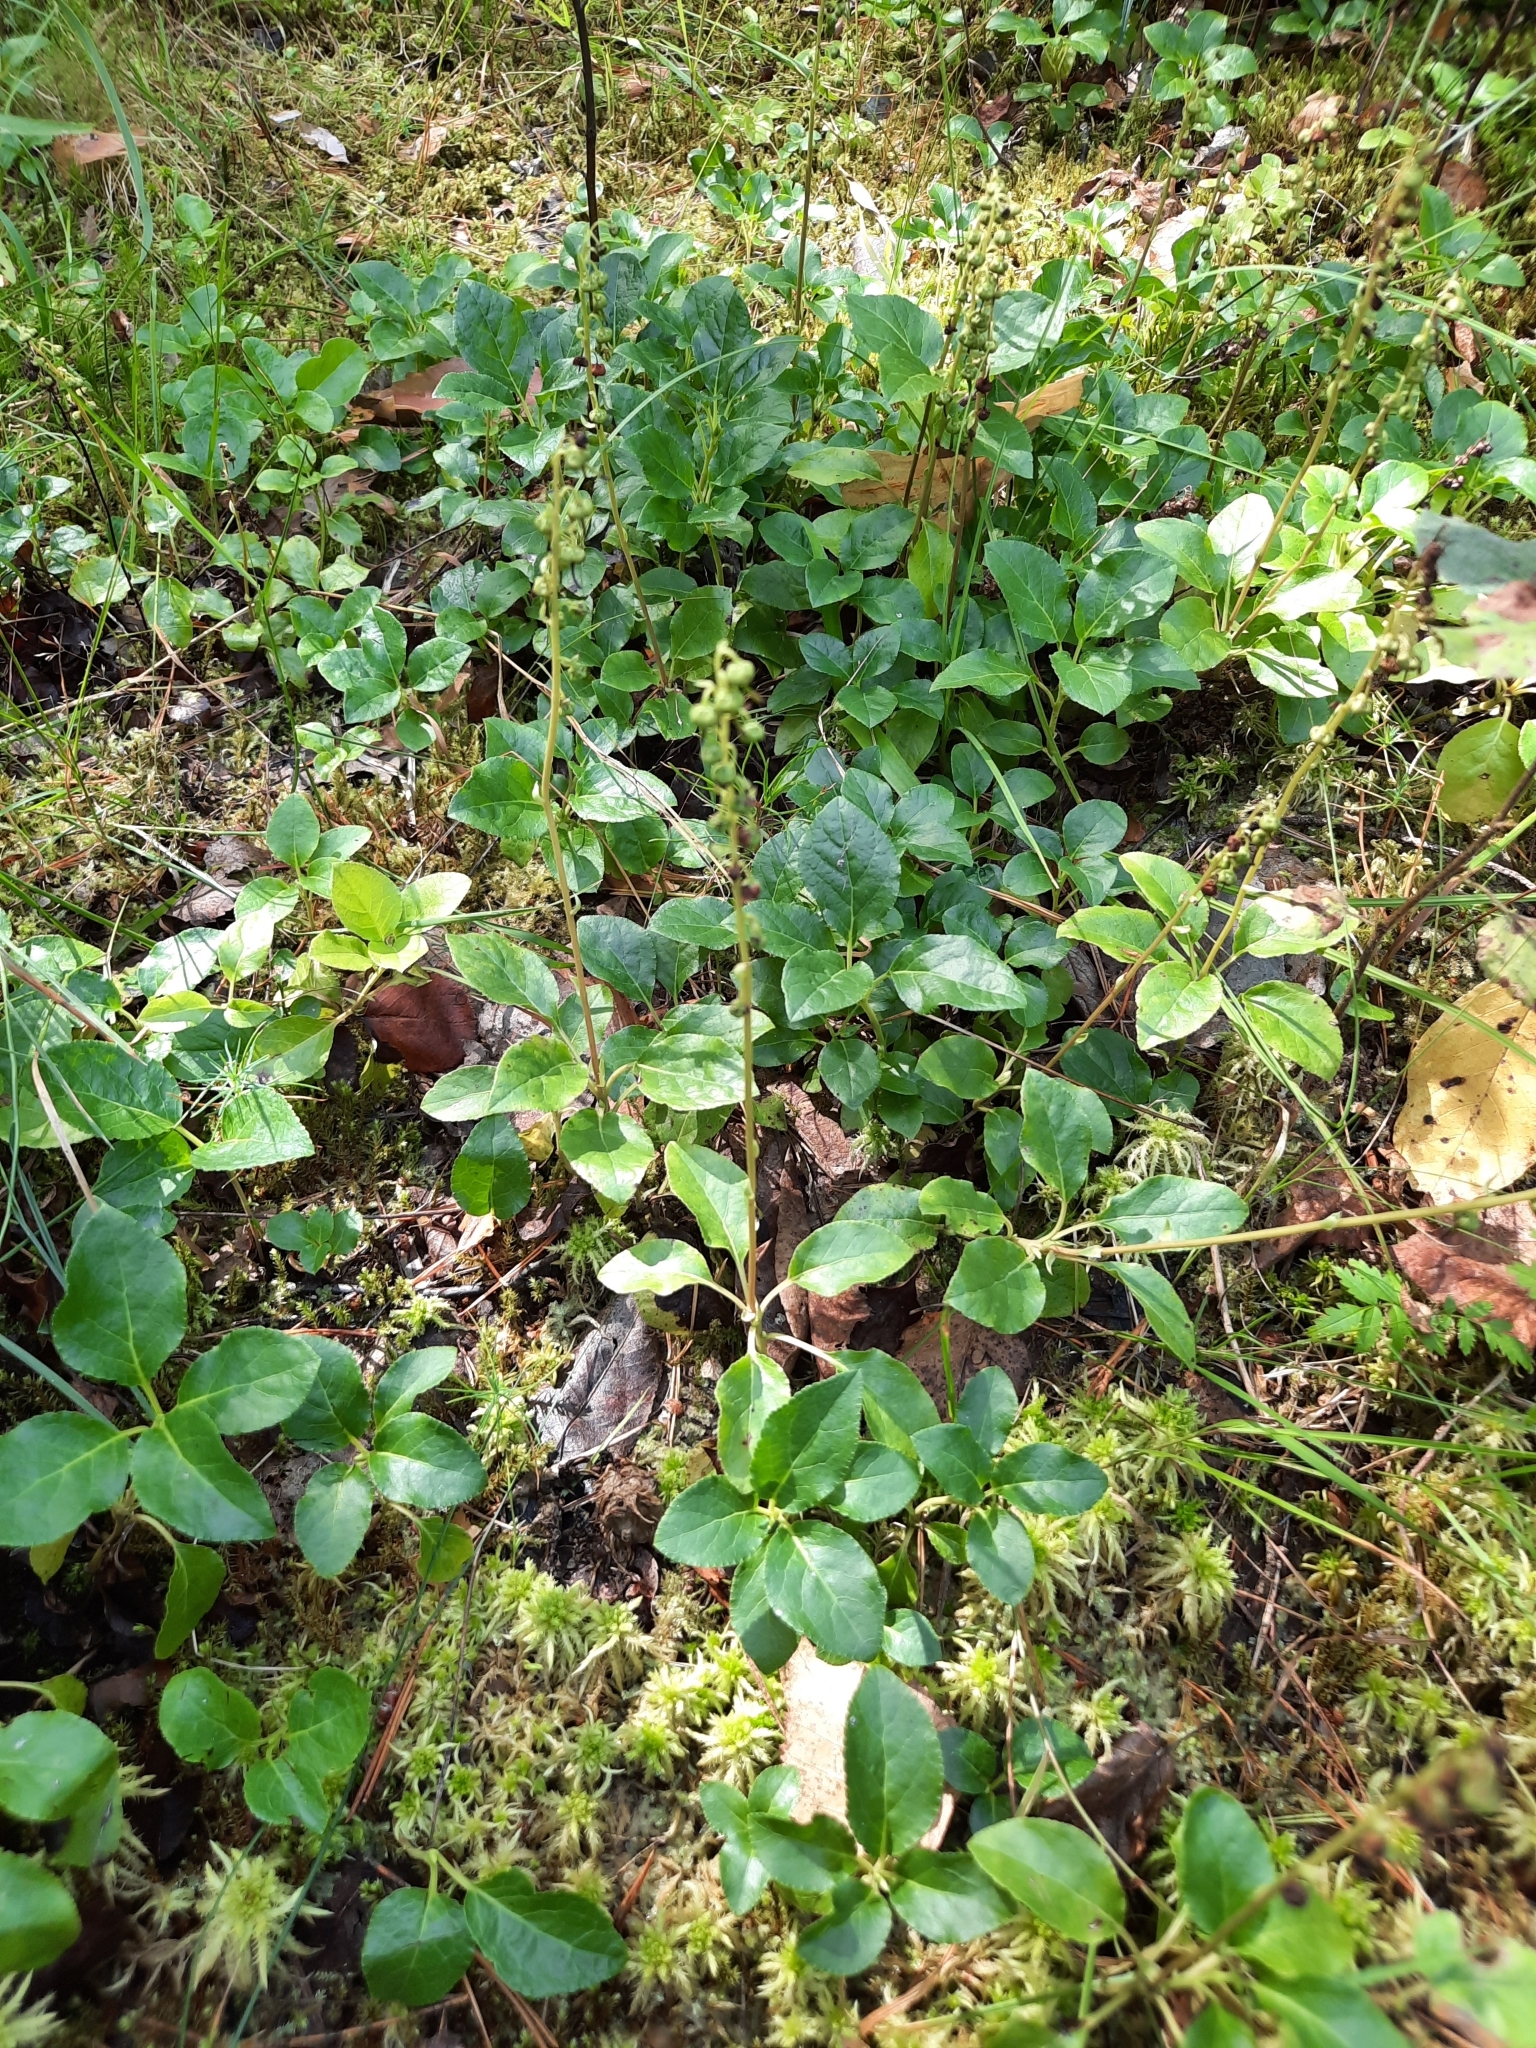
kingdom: Plantae
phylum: Tracheophyta
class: Magnoliopsida
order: Ericales
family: Ericaceae
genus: Orthilia
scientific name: Orthilia secunda
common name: One-sided orthilia
